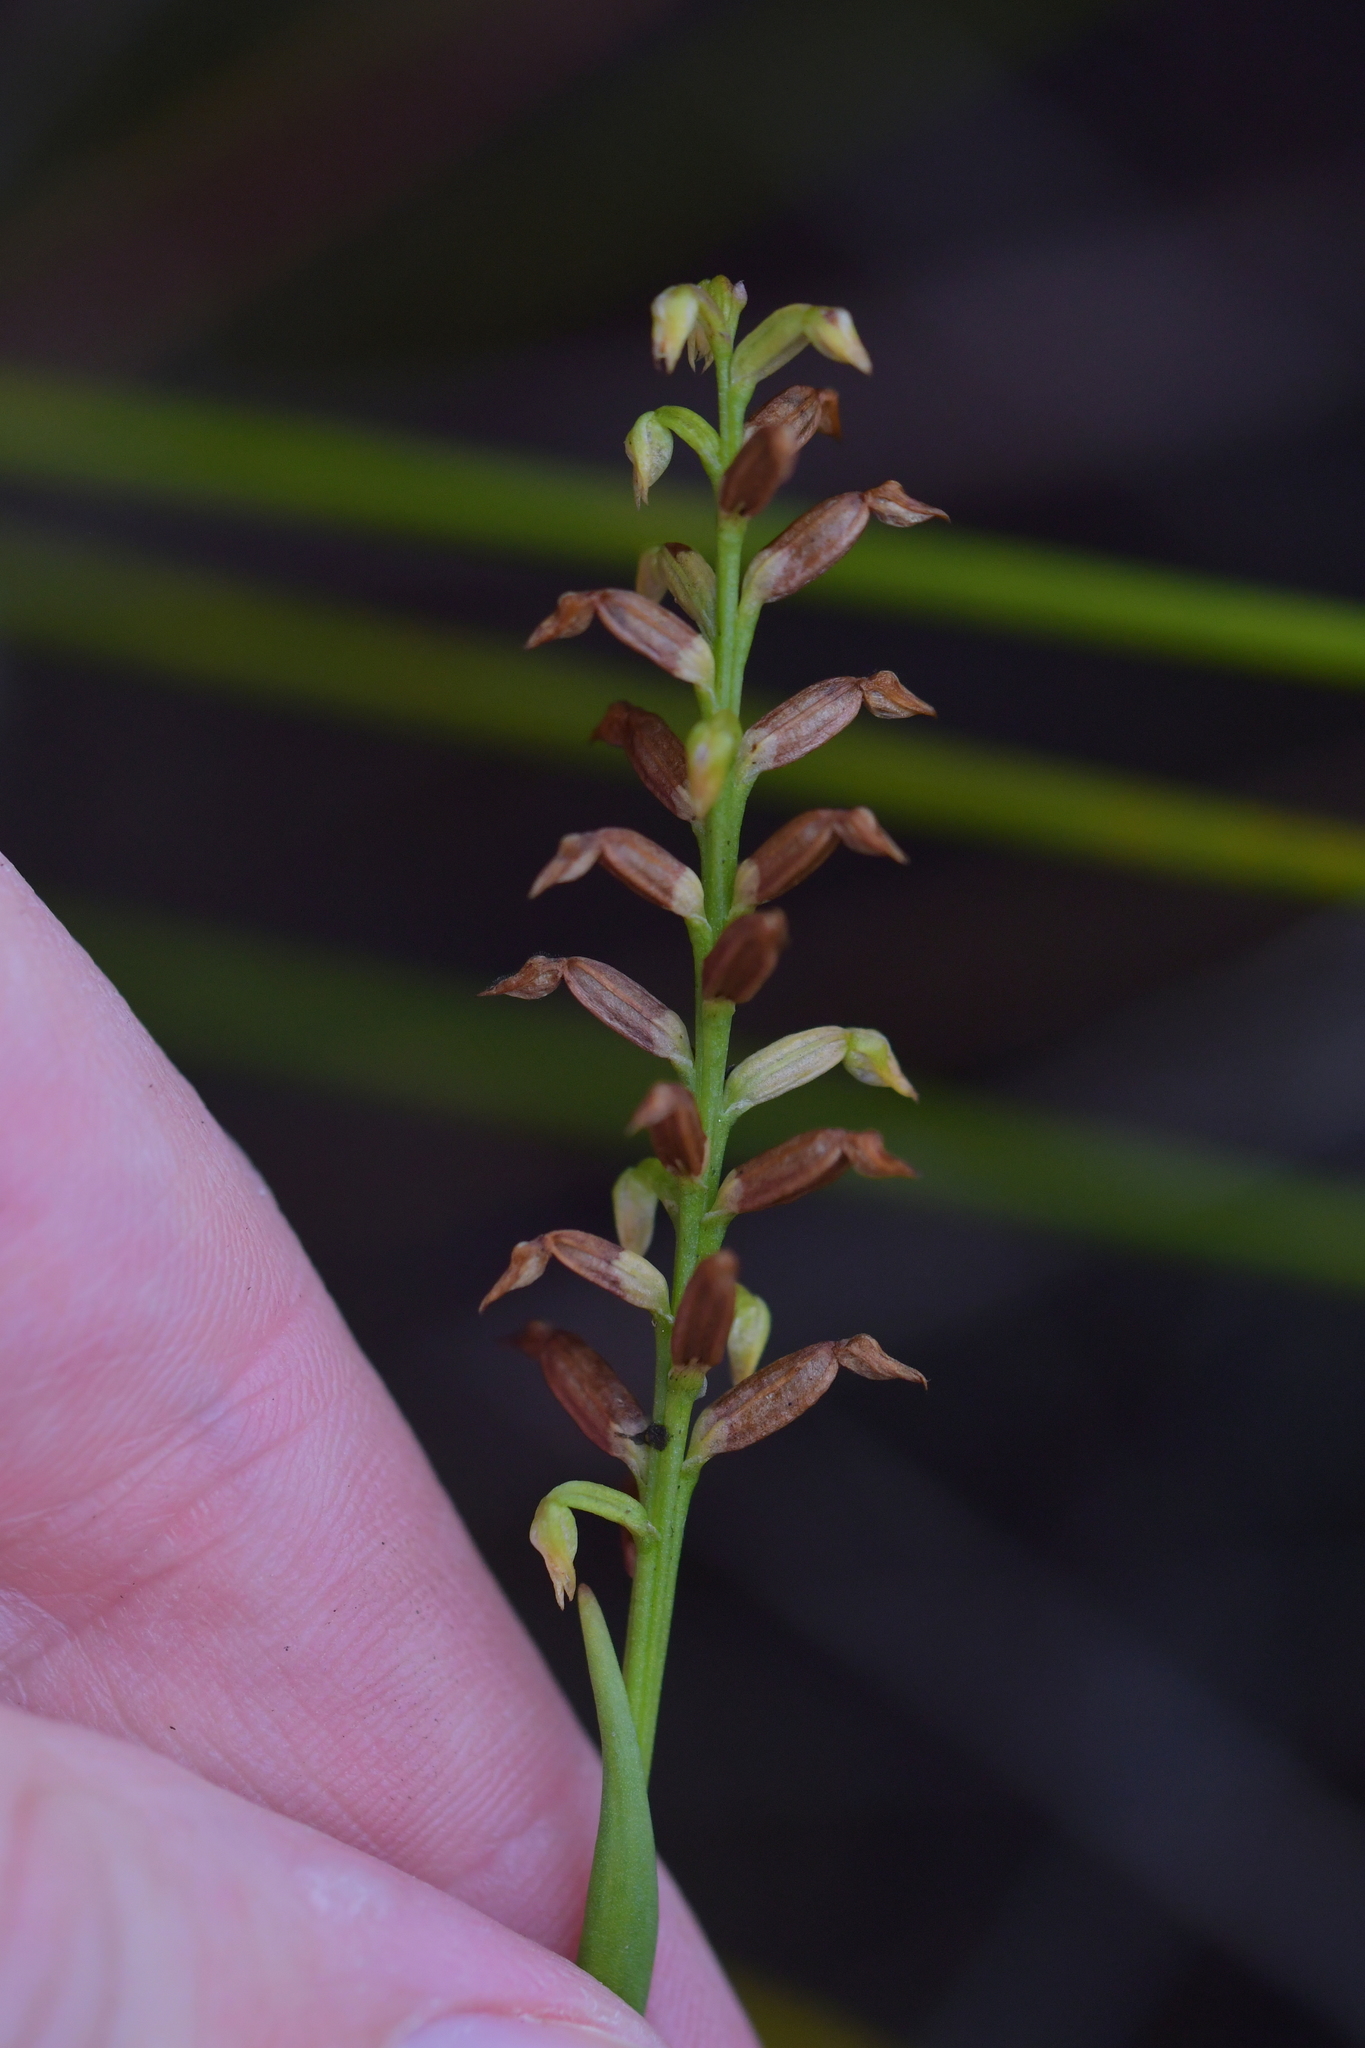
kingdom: Plantae
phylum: Tracheophyta
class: Liliopsida
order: Asparagales
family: Orchidaceae
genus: Genoplesium
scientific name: Genoplesium pumilum
